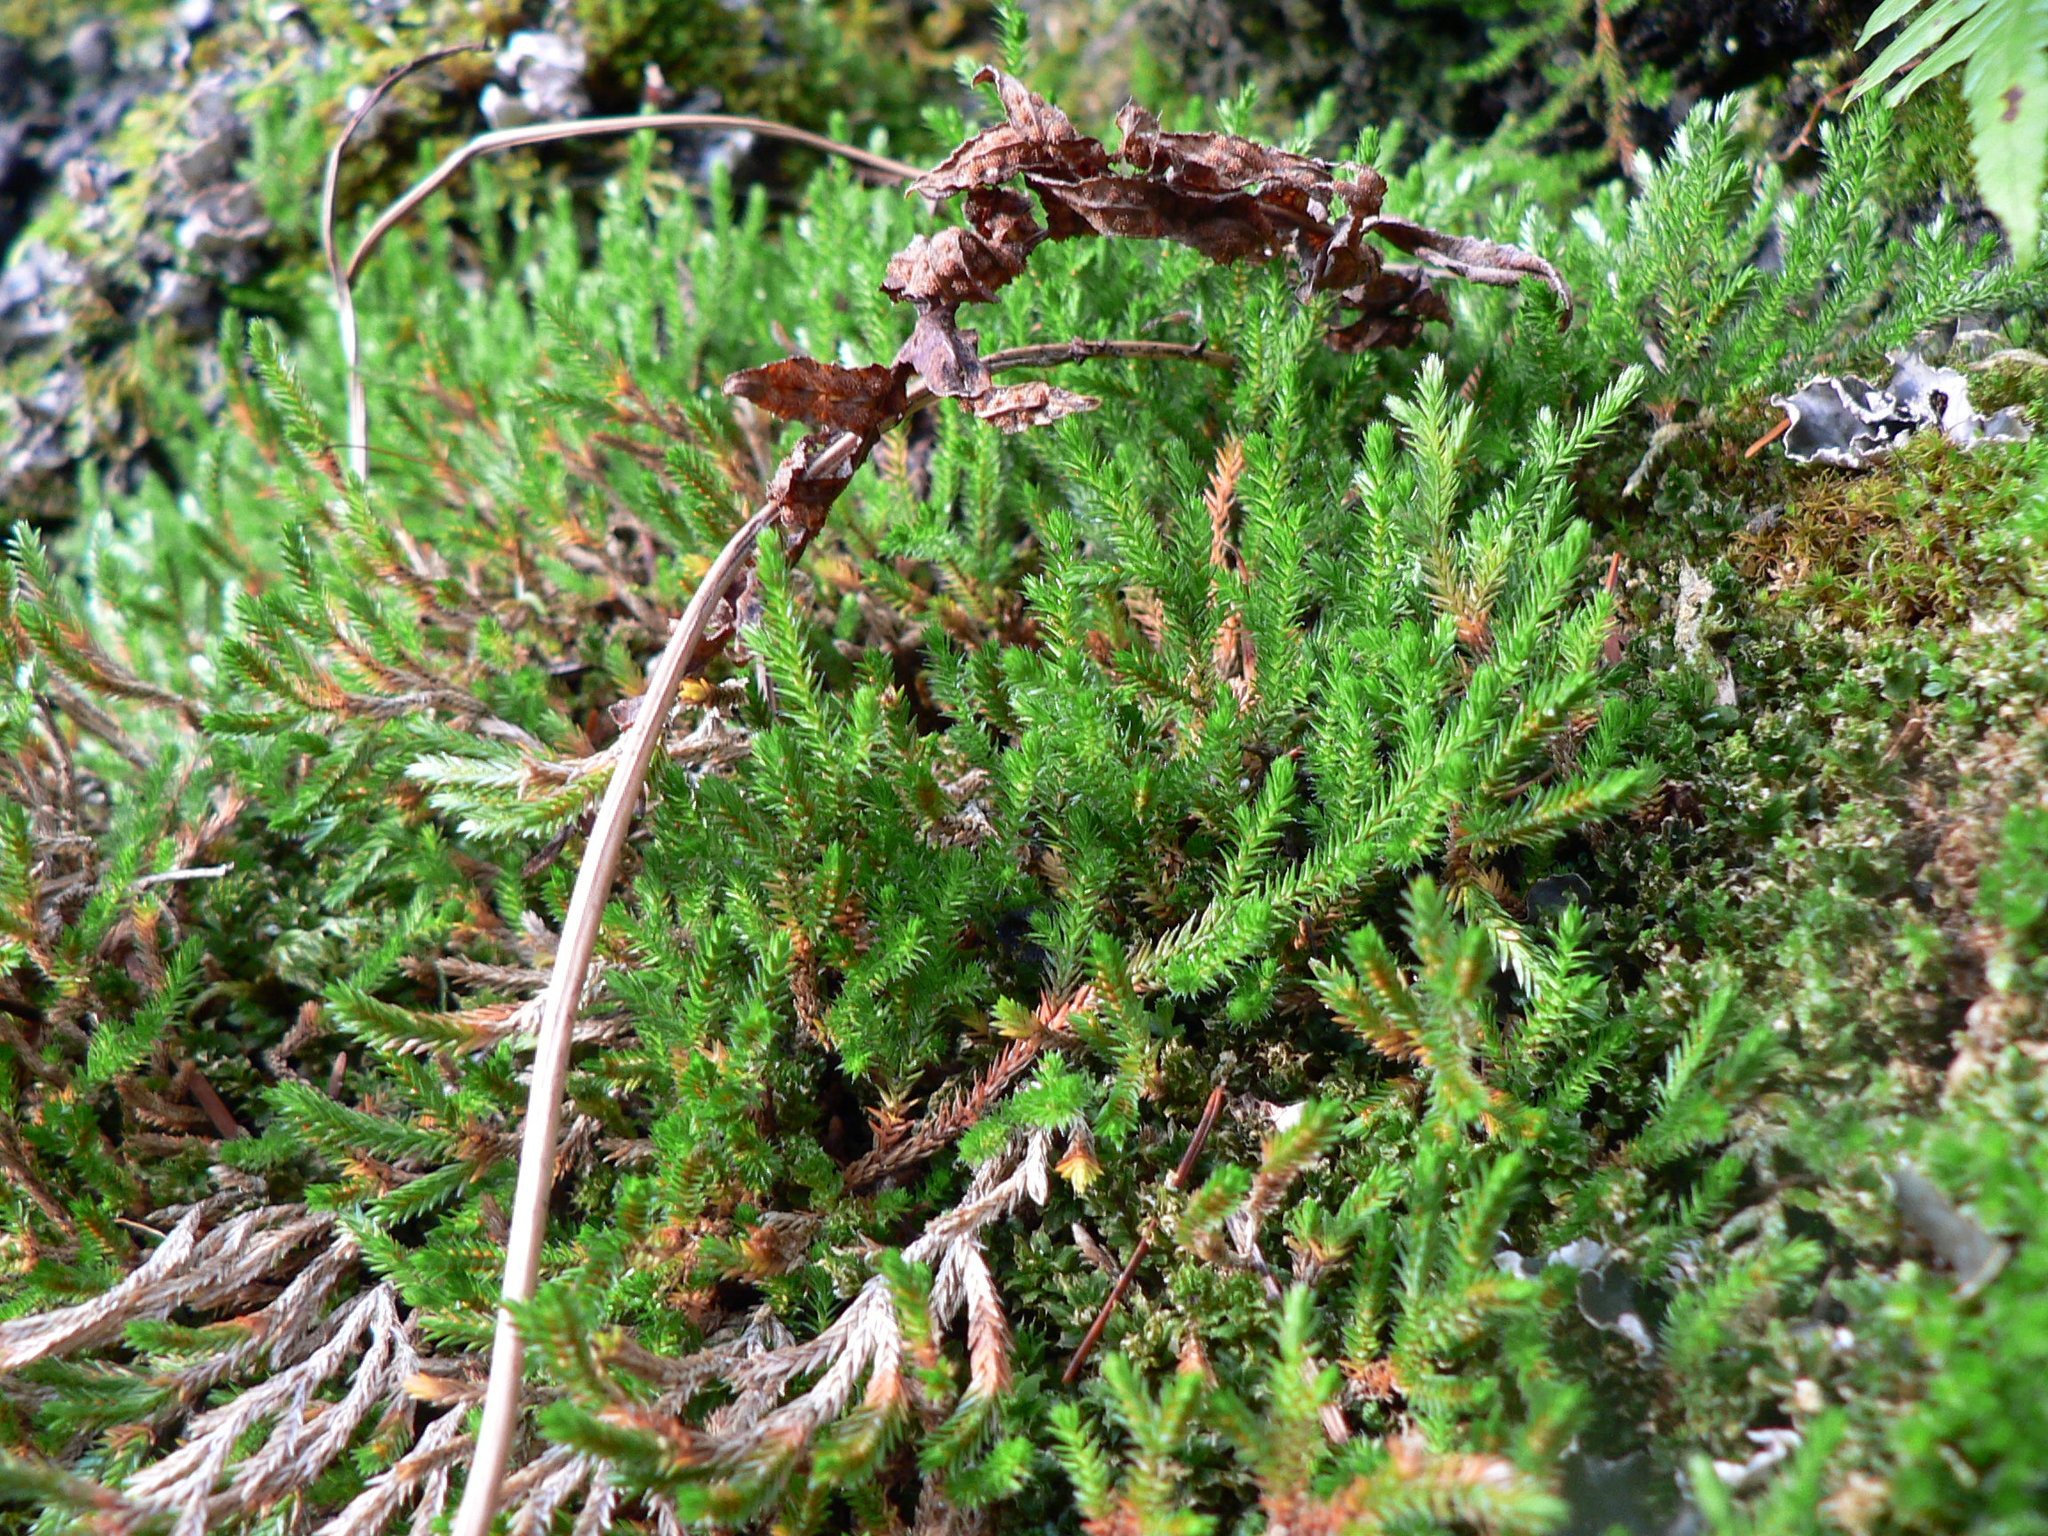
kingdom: Plantae
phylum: Tracheophyta
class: Lycopodiopsida
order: Selaginellales
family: Selaginellaceae
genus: Selaginella
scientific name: Selaginella wallacei
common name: Wallace's selaginella
